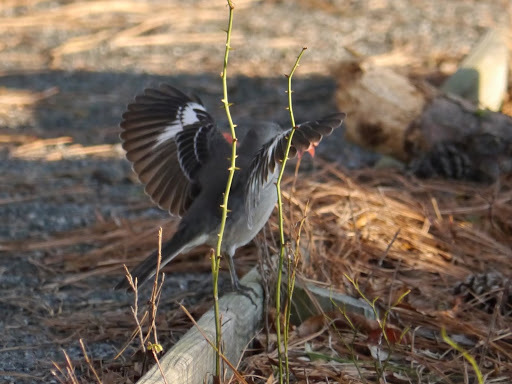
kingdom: Animalia
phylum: Chordata
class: Aves
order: Passeriformes
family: Mimidae
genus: Mimus
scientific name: Mimus polyglottos
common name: Northern mockingbird
